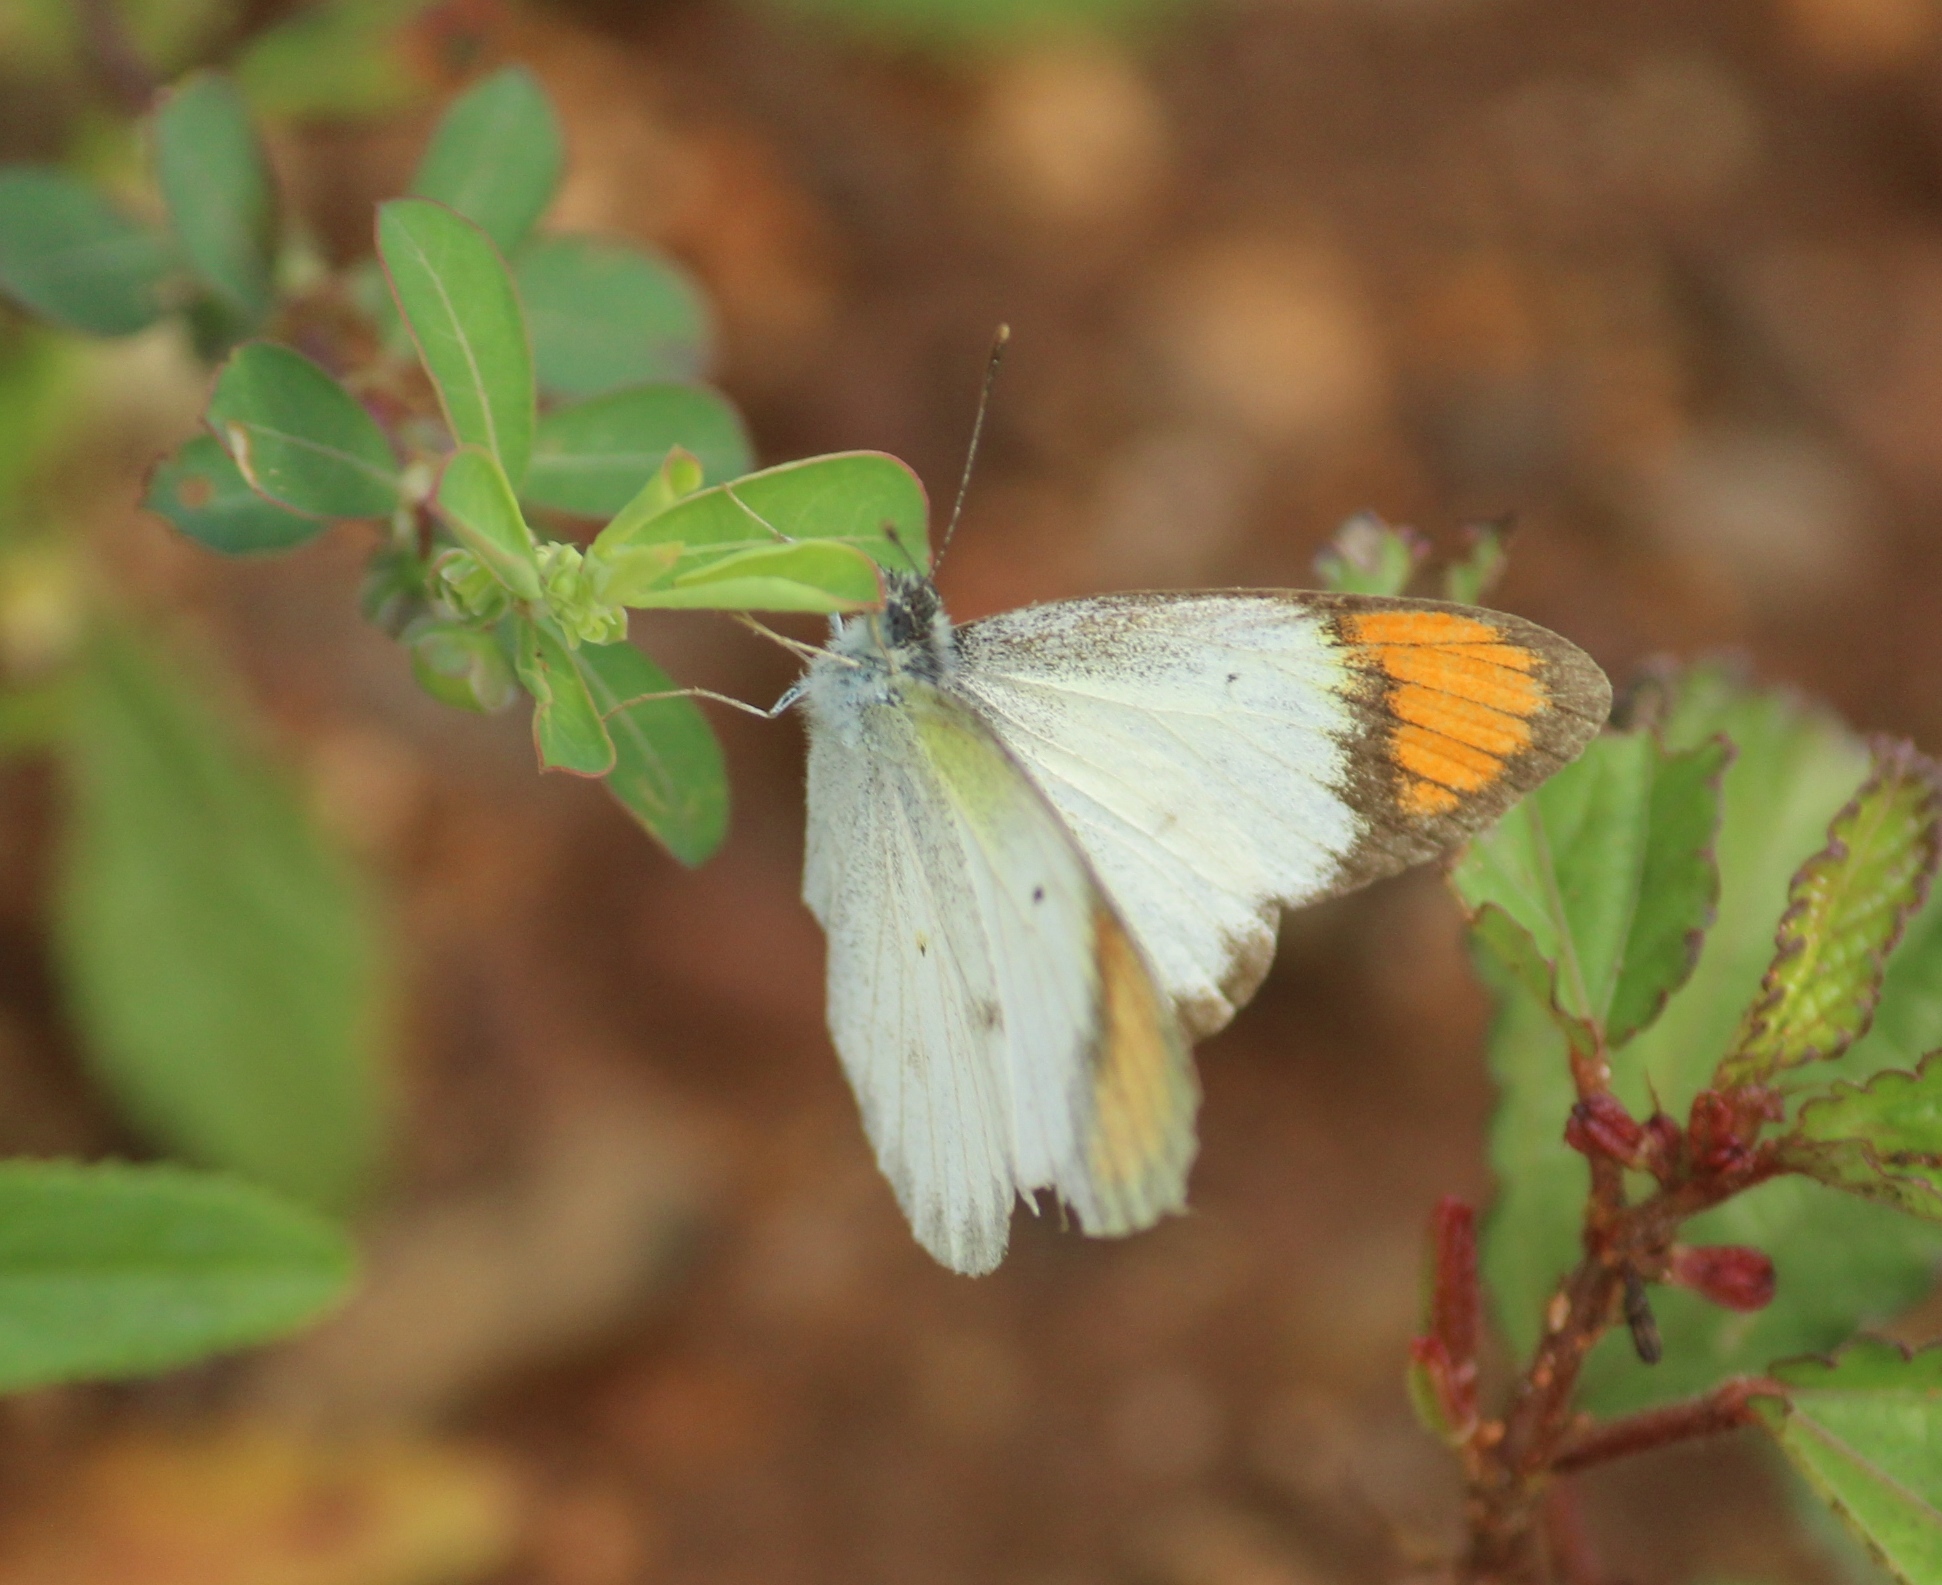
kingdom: Animalia
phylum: Arthropoda
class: Insecta
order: Lepidoptera
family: Pieridae
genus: Colotis
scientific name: Colotis etrida
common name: Little orange tip
